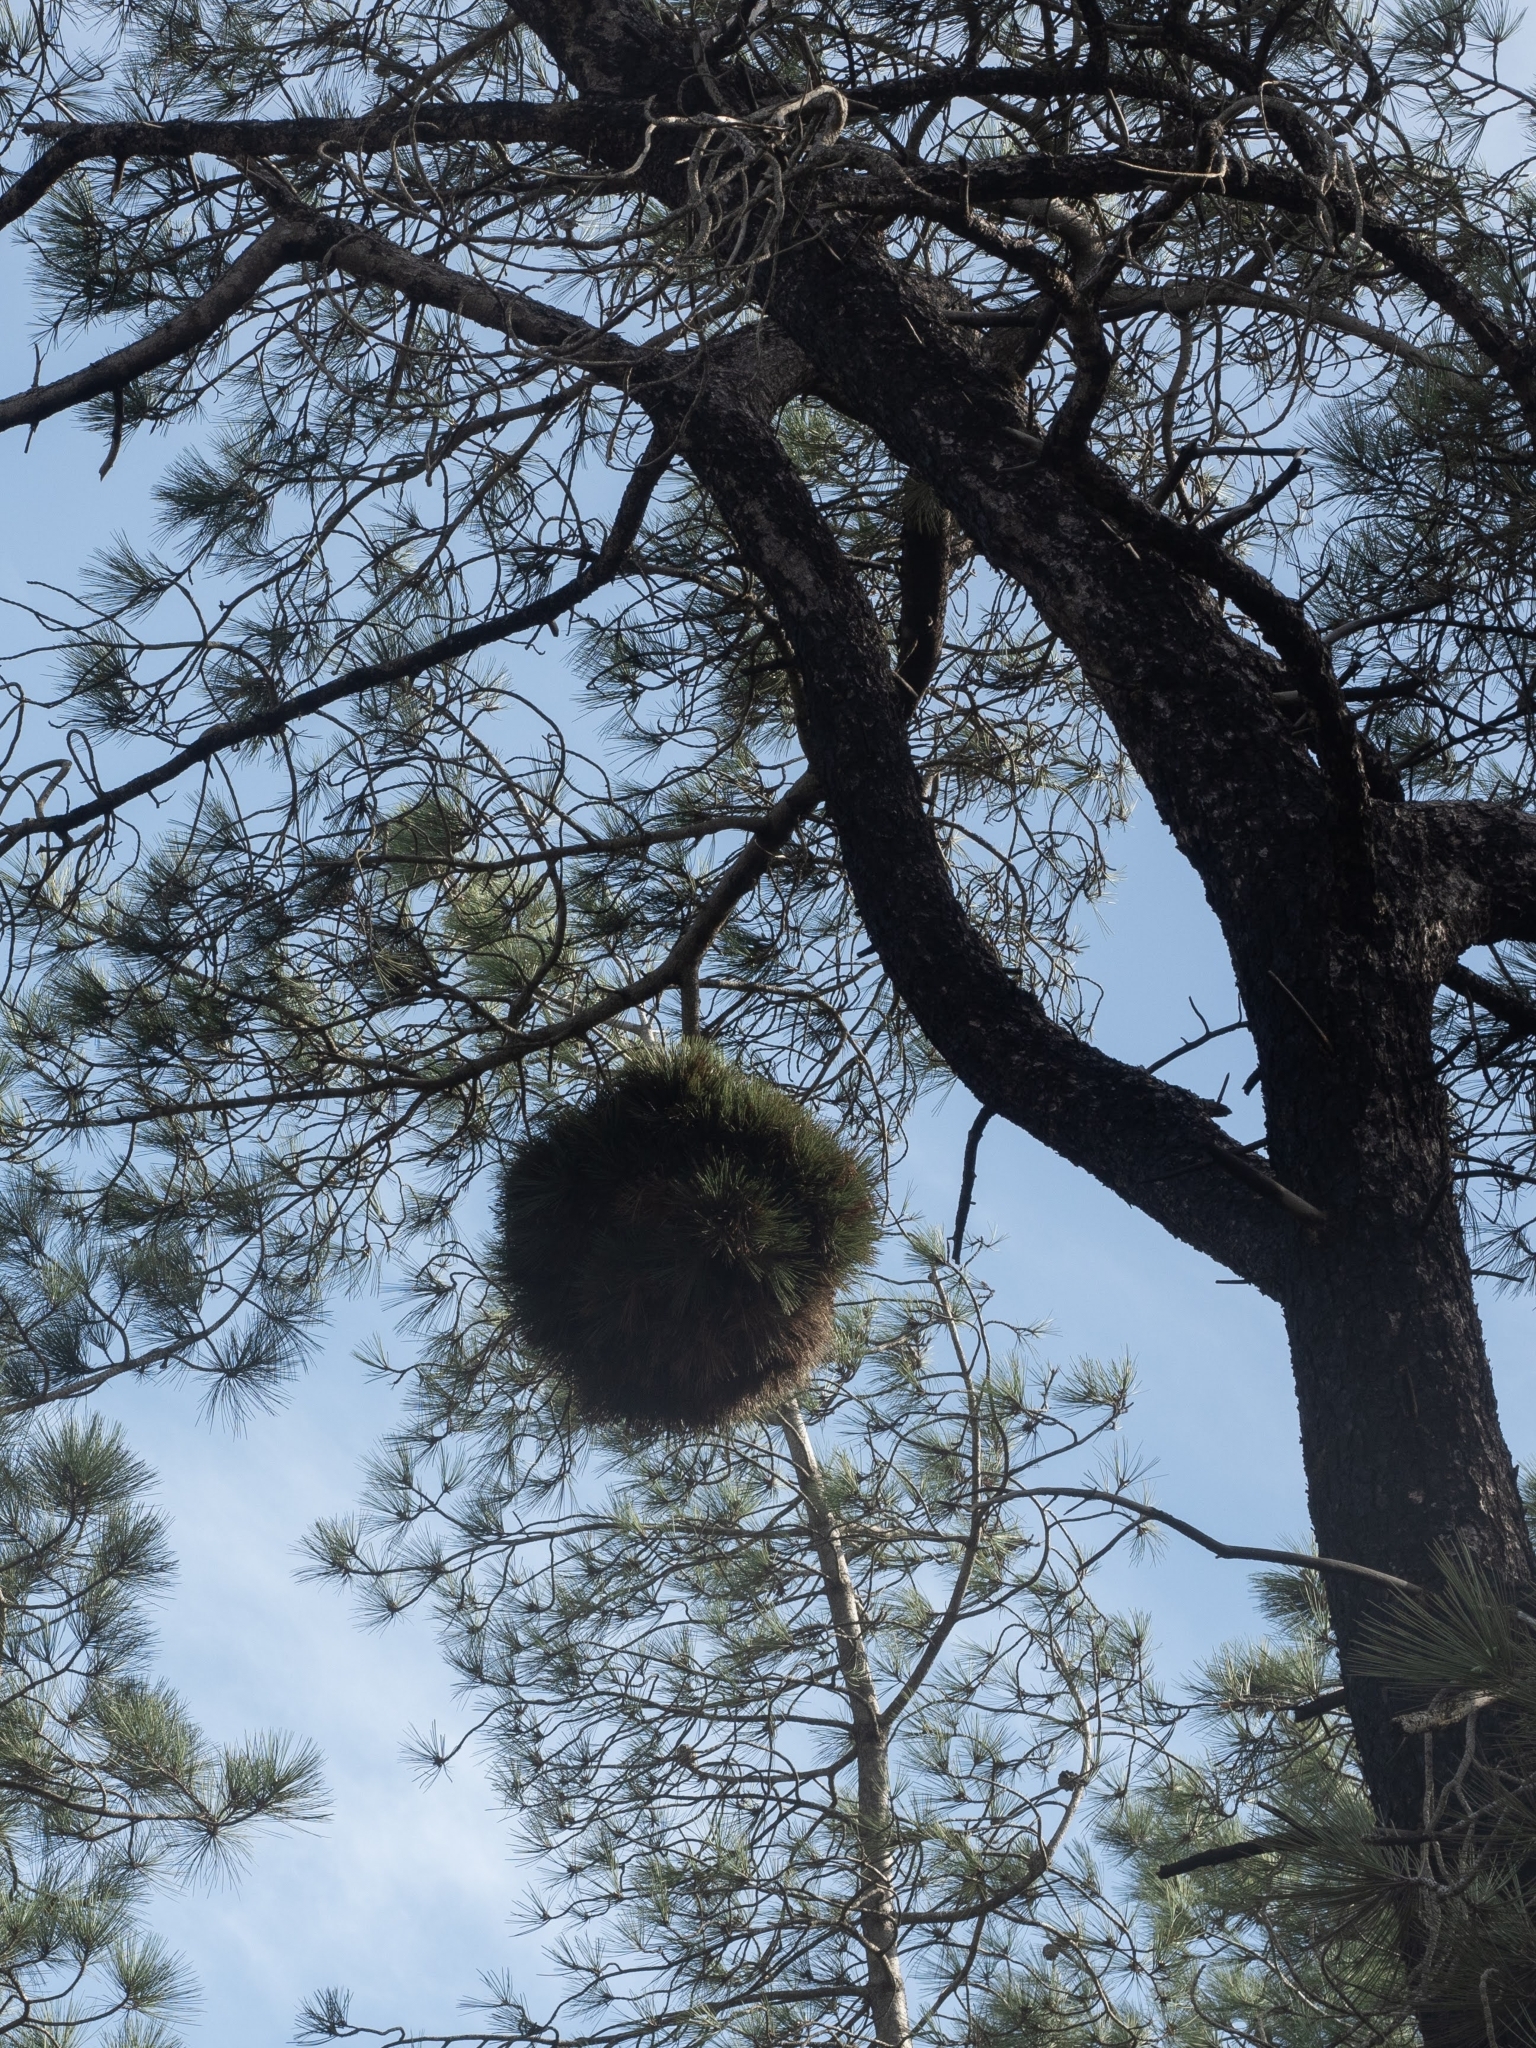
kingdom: Plantae
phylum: Tracheophyta
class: Pinopsida
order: Pinales
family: Pinaceae
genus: Pinus
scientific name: Pinus torreyana
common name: Torrey pine
